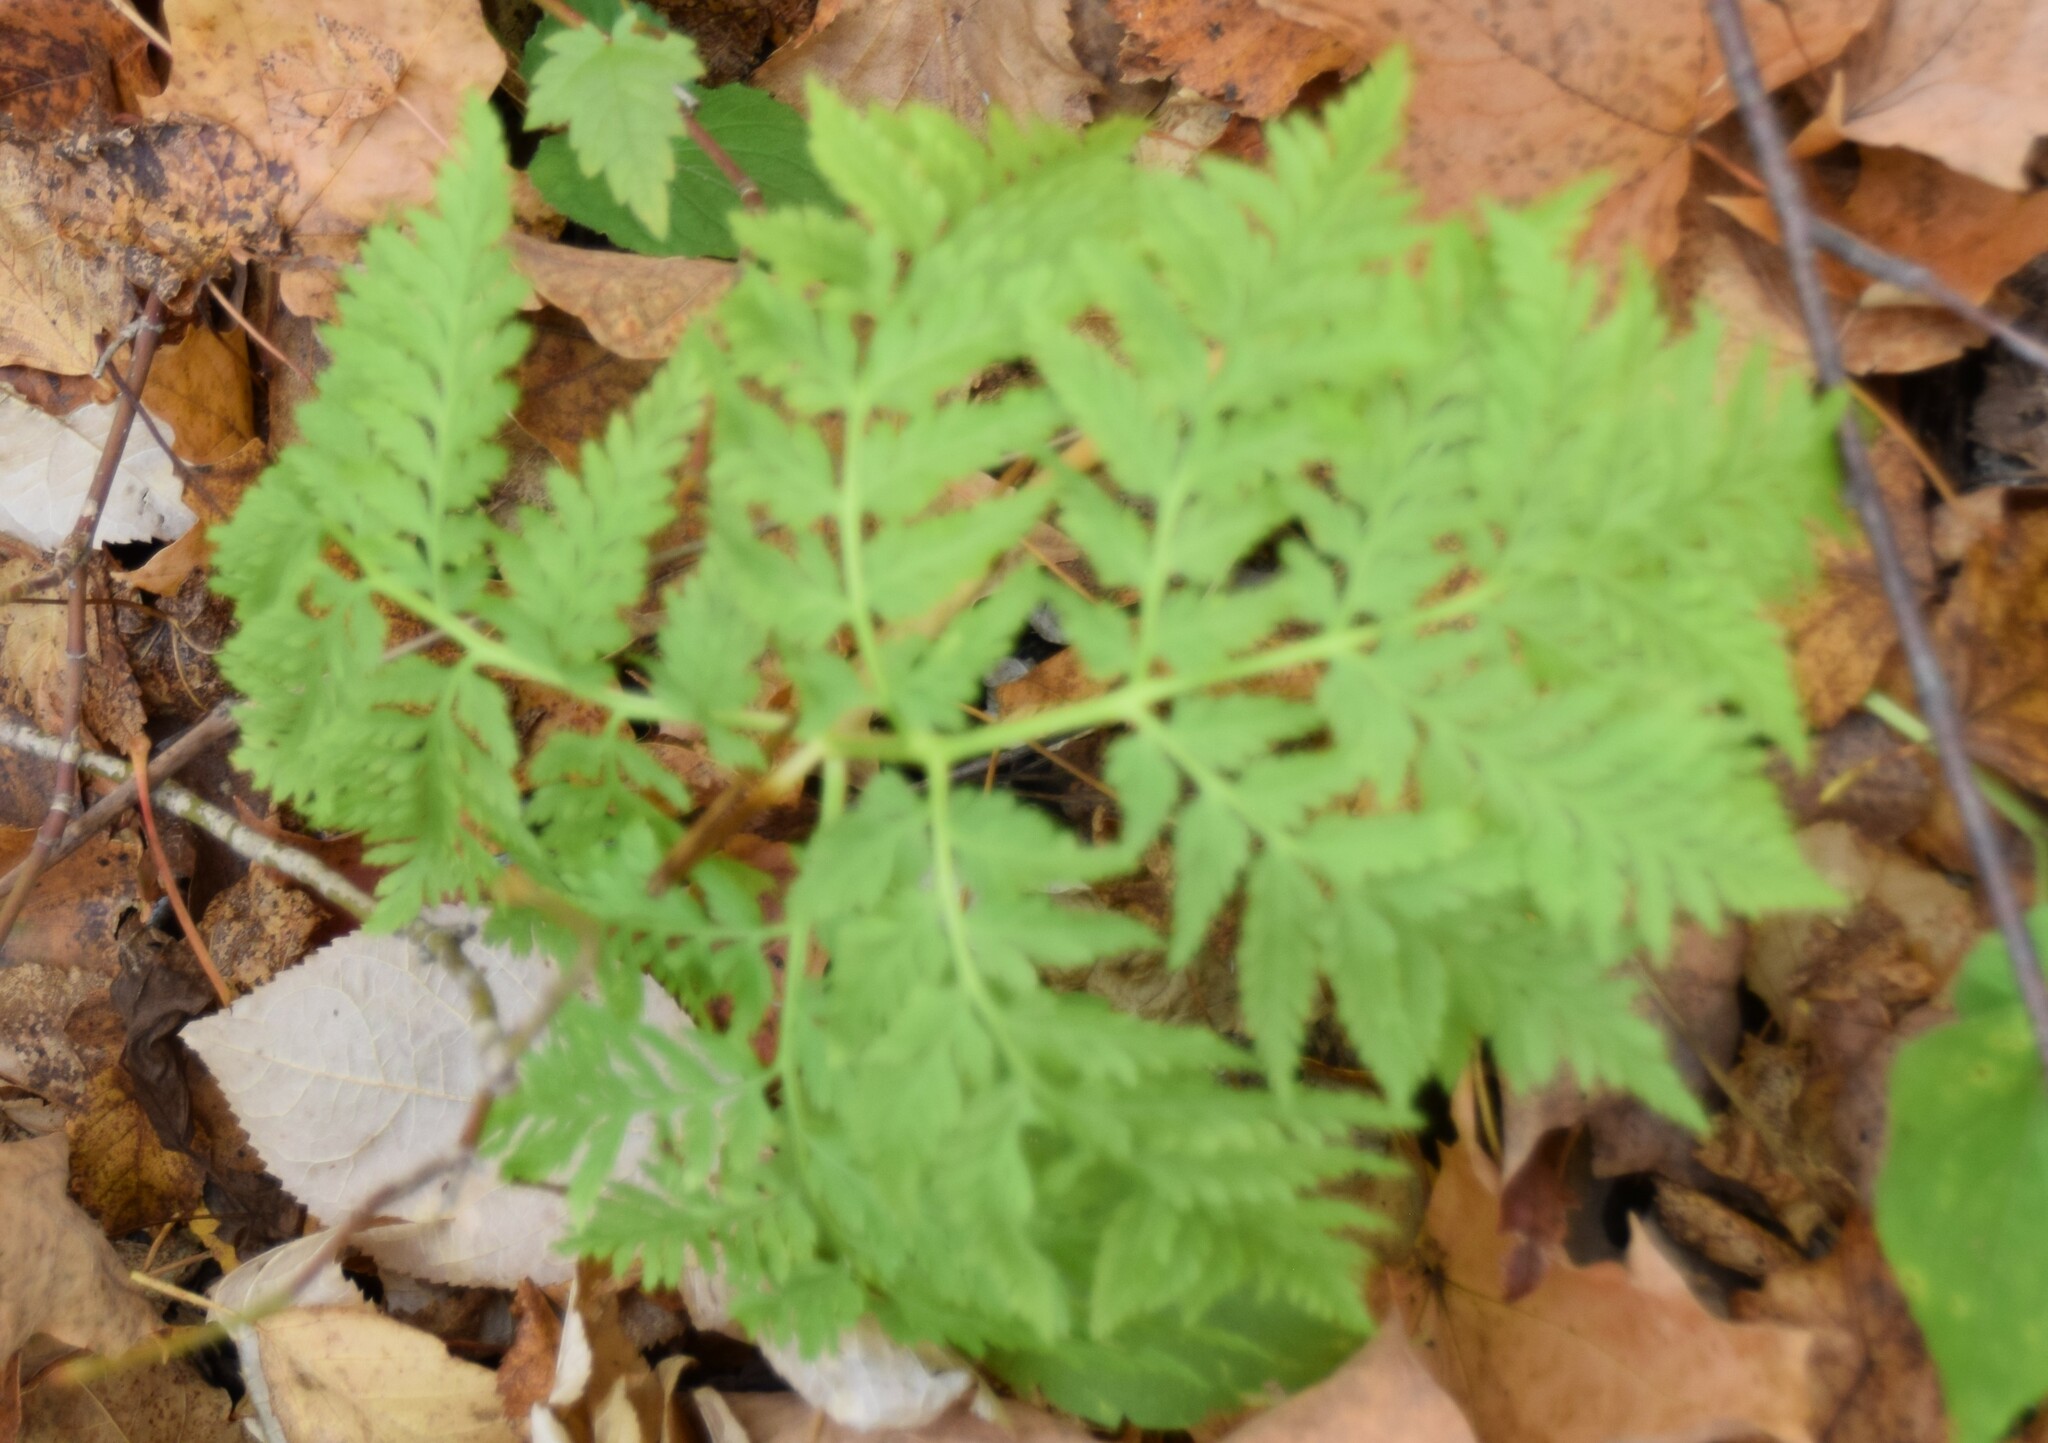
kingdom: Plantae
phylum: Tracheophyta
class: Polypodiopsida
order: Ophioglossales
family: Ophioglossaceae
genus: Botrypus
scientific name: Botrypus virginianus
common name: Common grapefern
